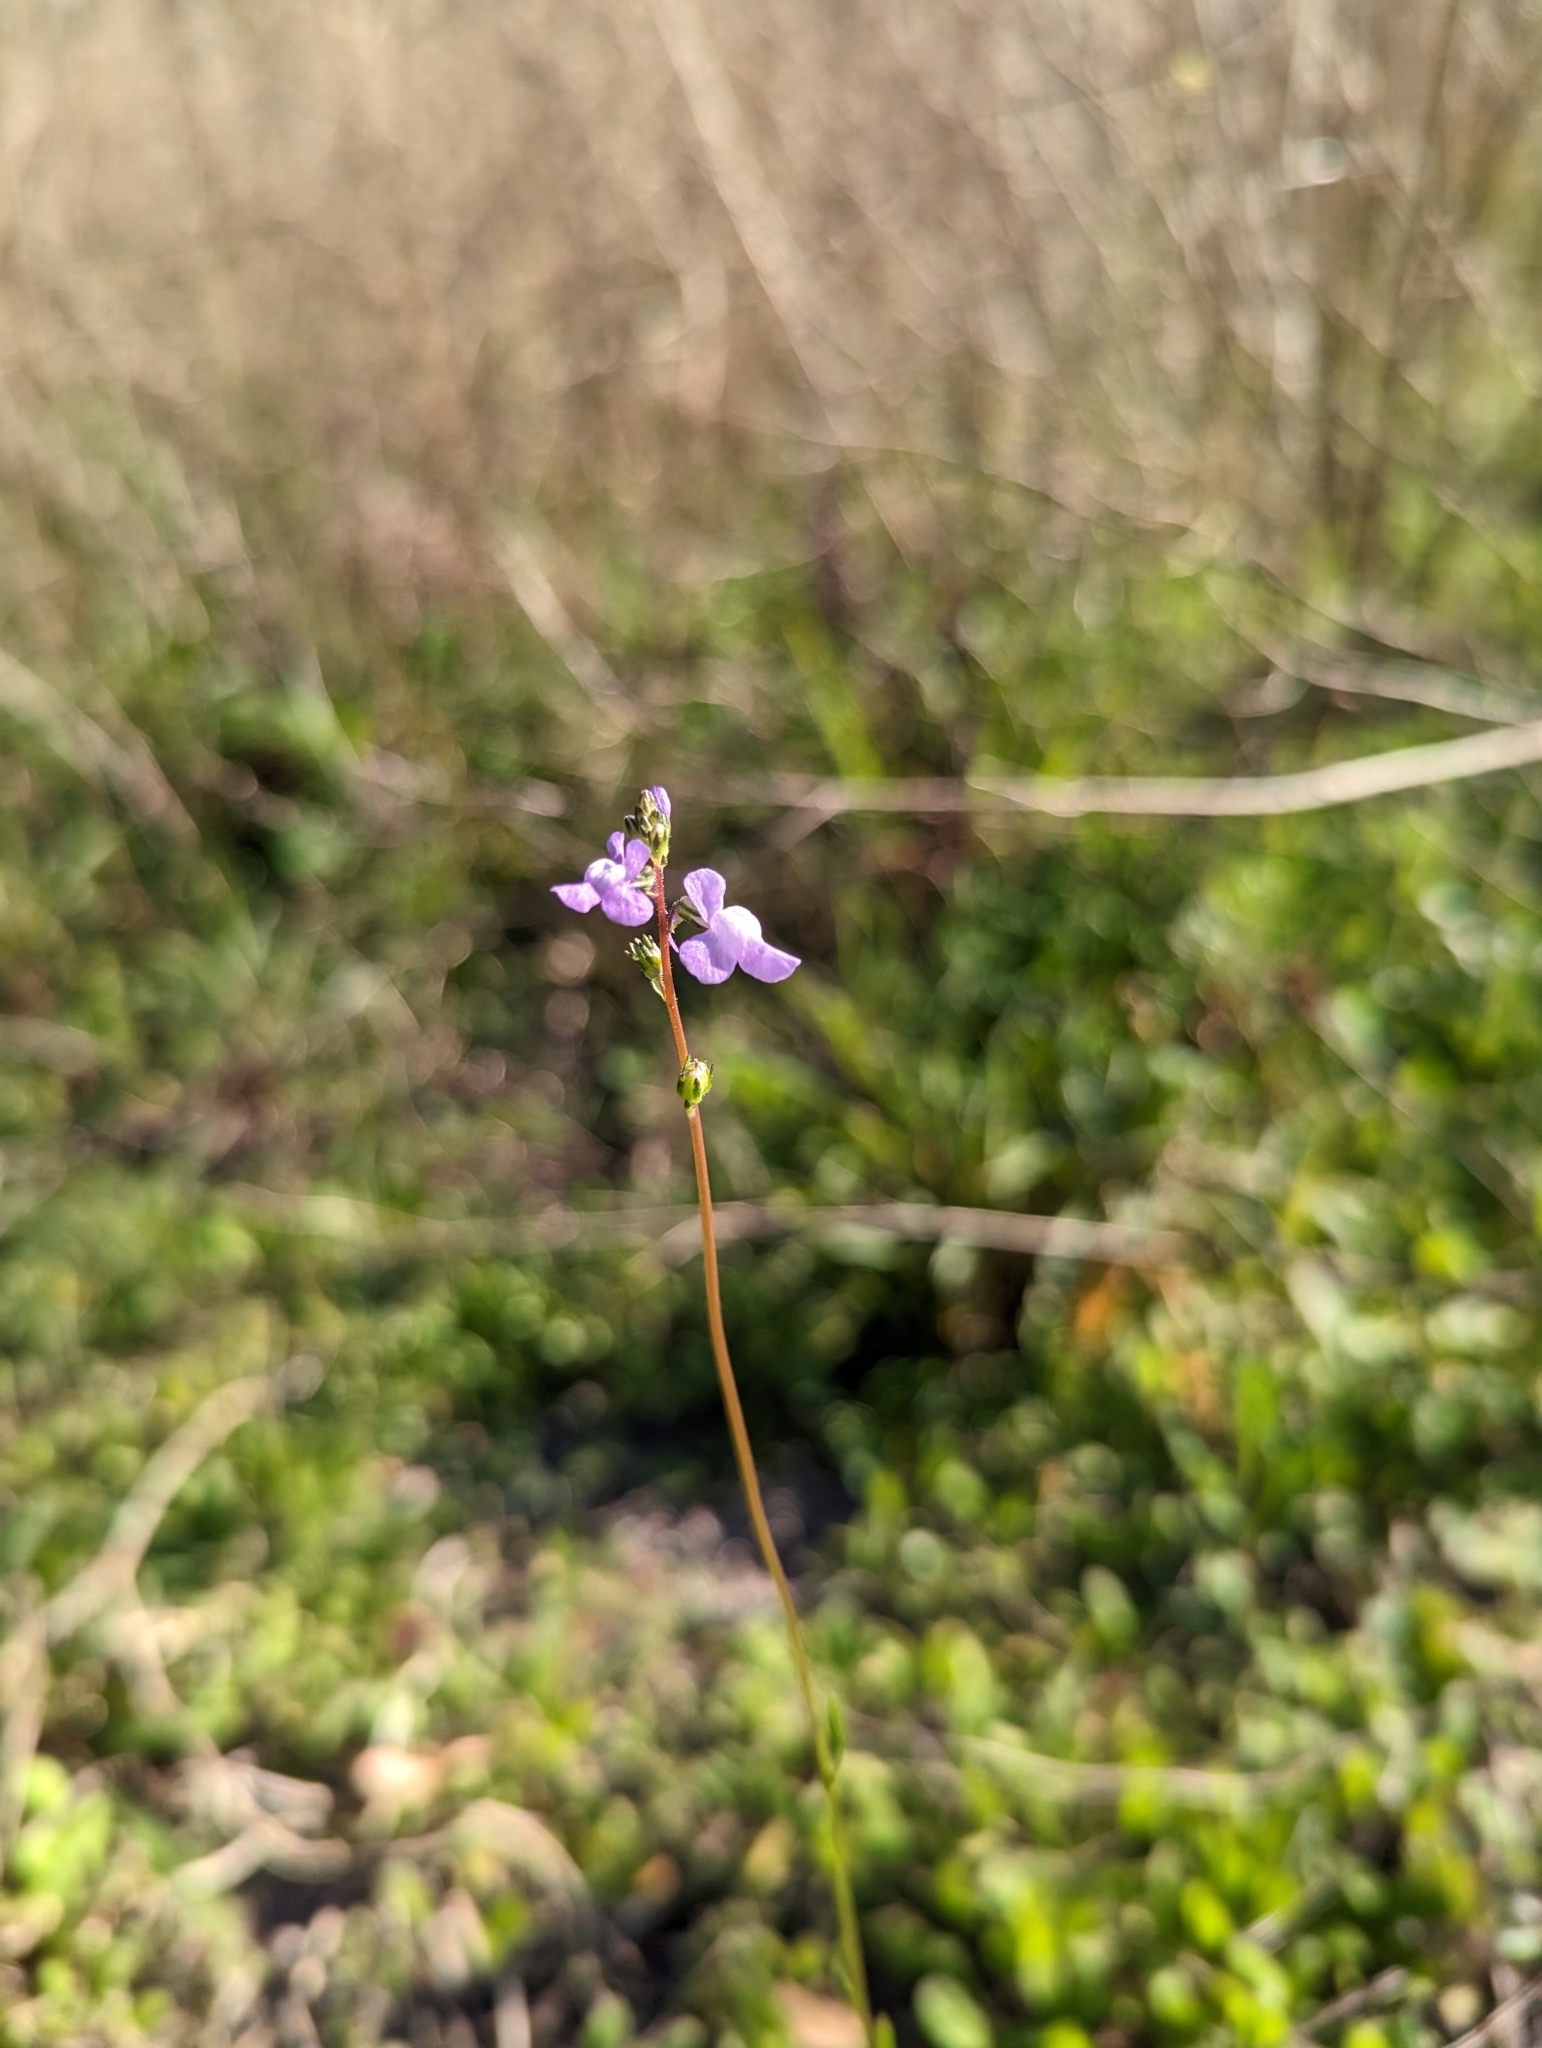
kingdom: Plantae
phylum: Tracheophyta
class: Magnoliopsida
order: Lamiales
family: Plantaginaceae
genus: Nuttallanthus
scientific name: Nuttallanthus canadensis
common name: Blue toadflax
